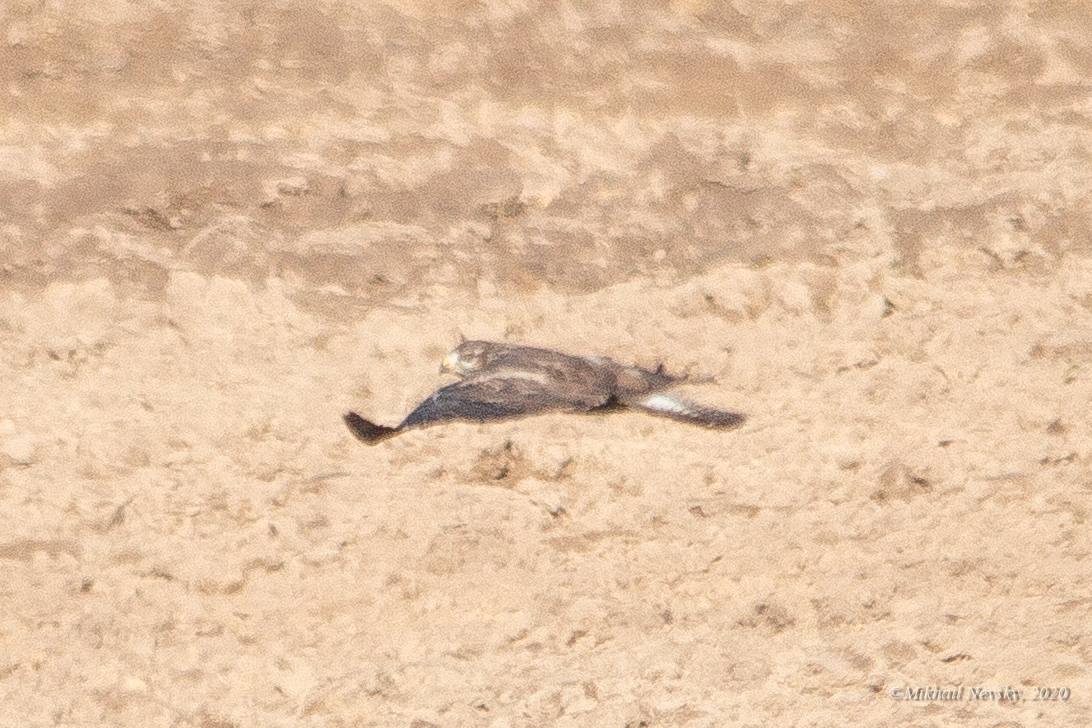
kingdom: Animalia
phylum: Chordata
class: Aves
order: Accipitriformes
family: Accipitridae
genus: Buteo
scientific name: Buteo buteo
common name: Common buzzard
